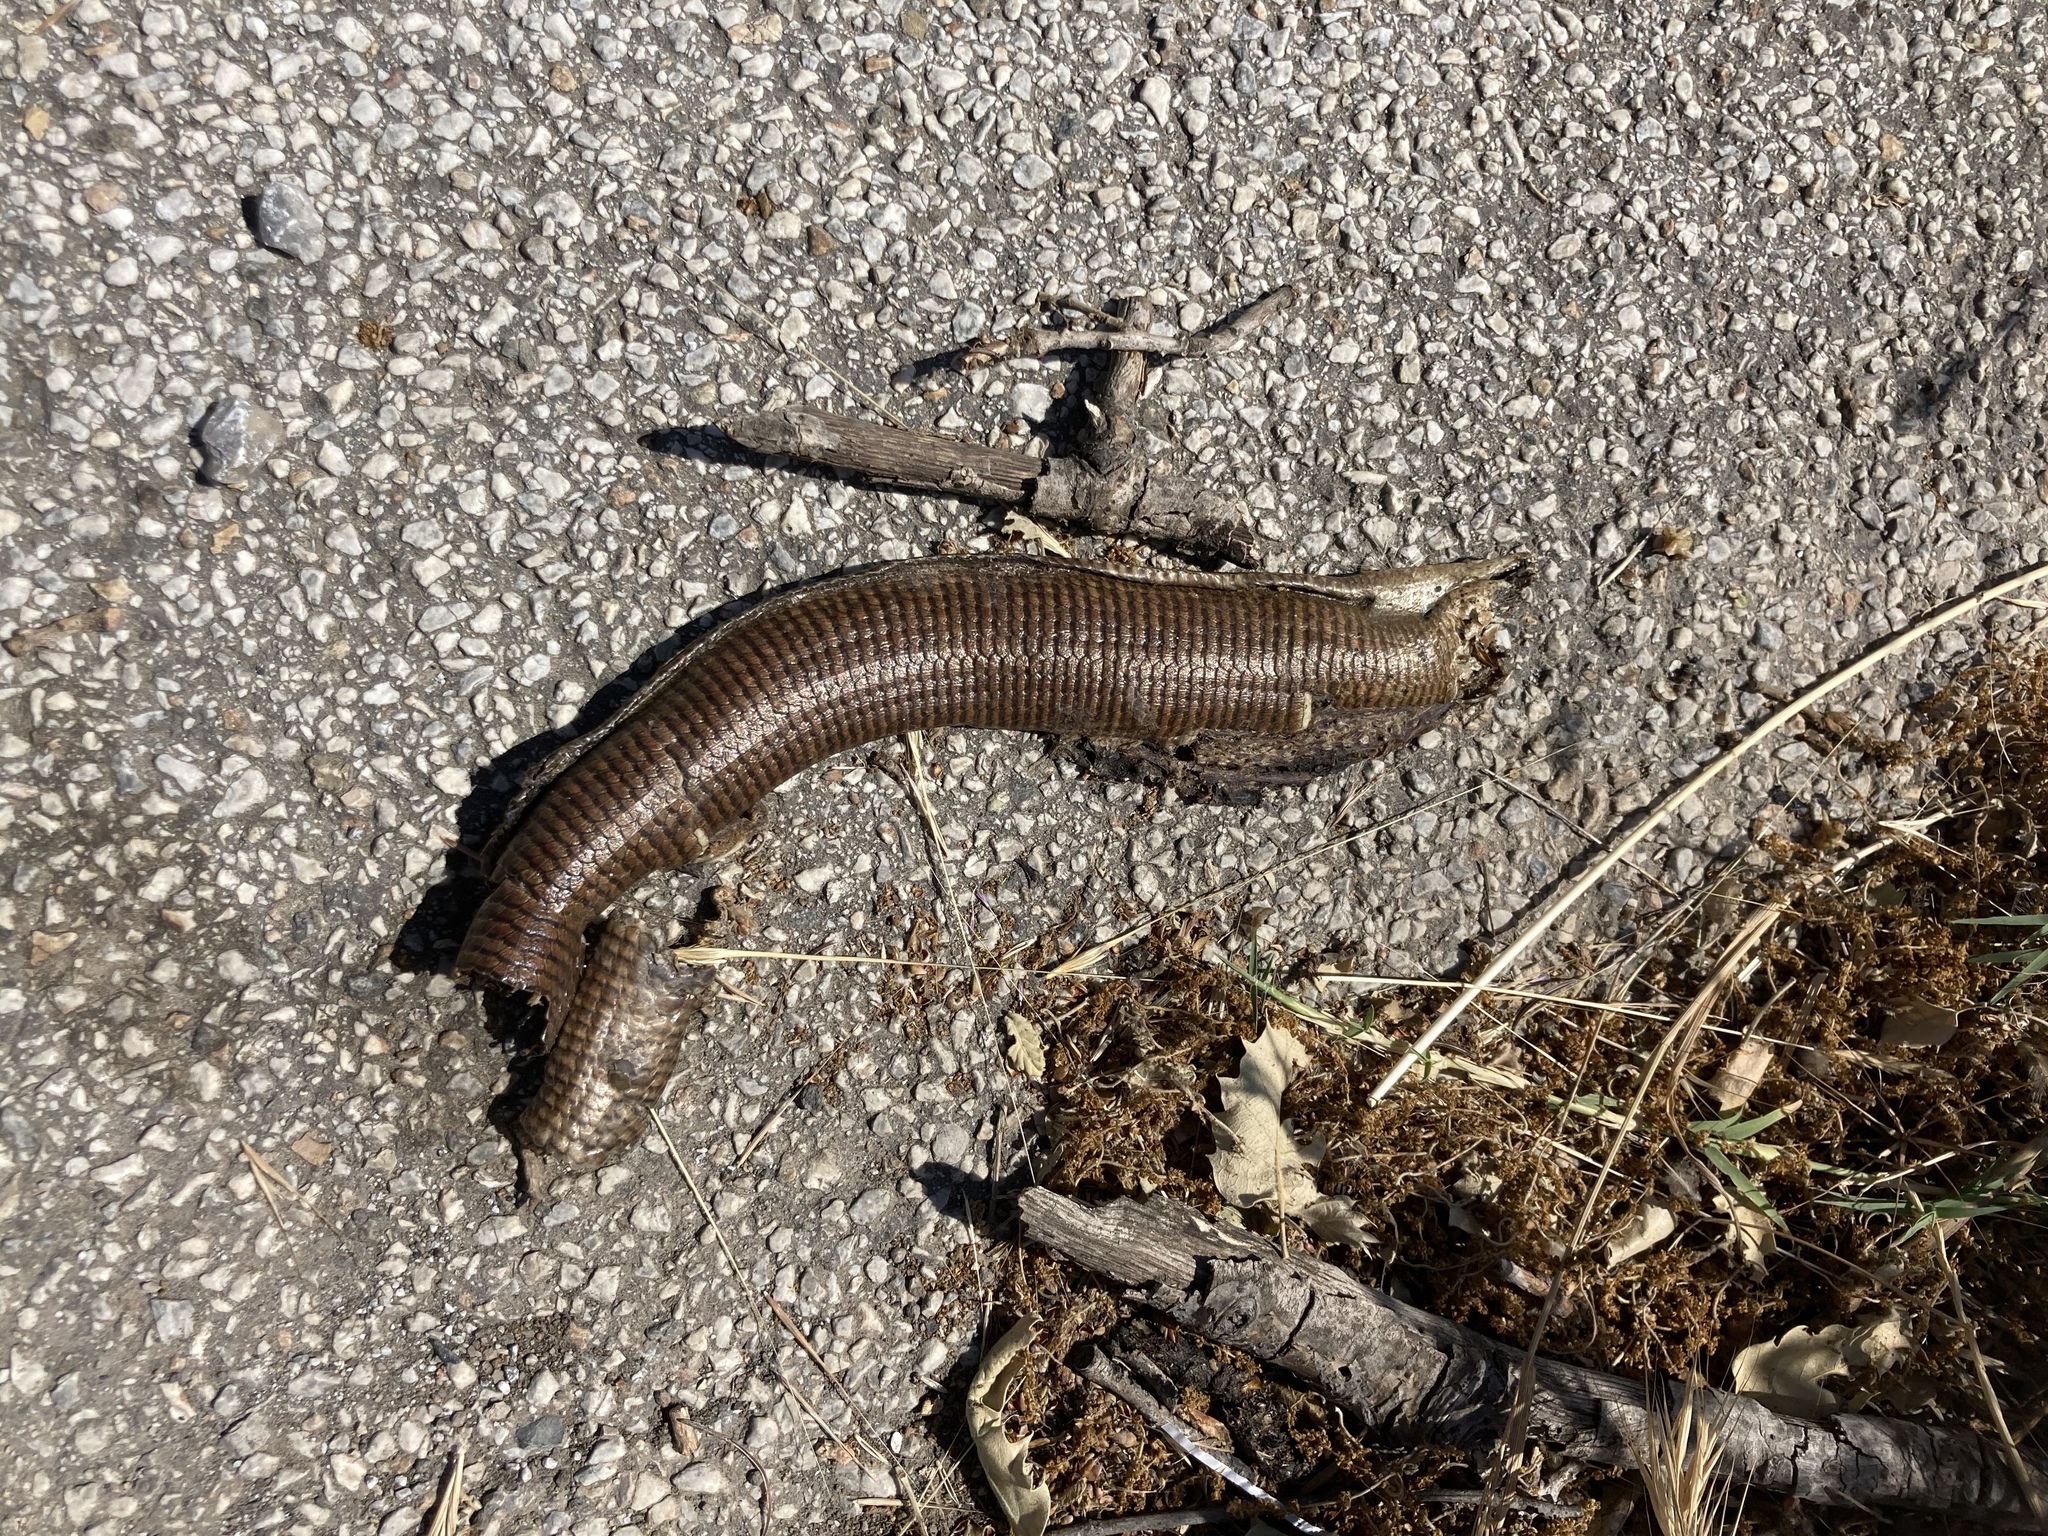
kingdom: Animalia
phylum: Chordata
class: Squamata
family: Anguidae
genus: Pseudopus
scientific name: Pseudopus apodus
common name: European glass lizard
